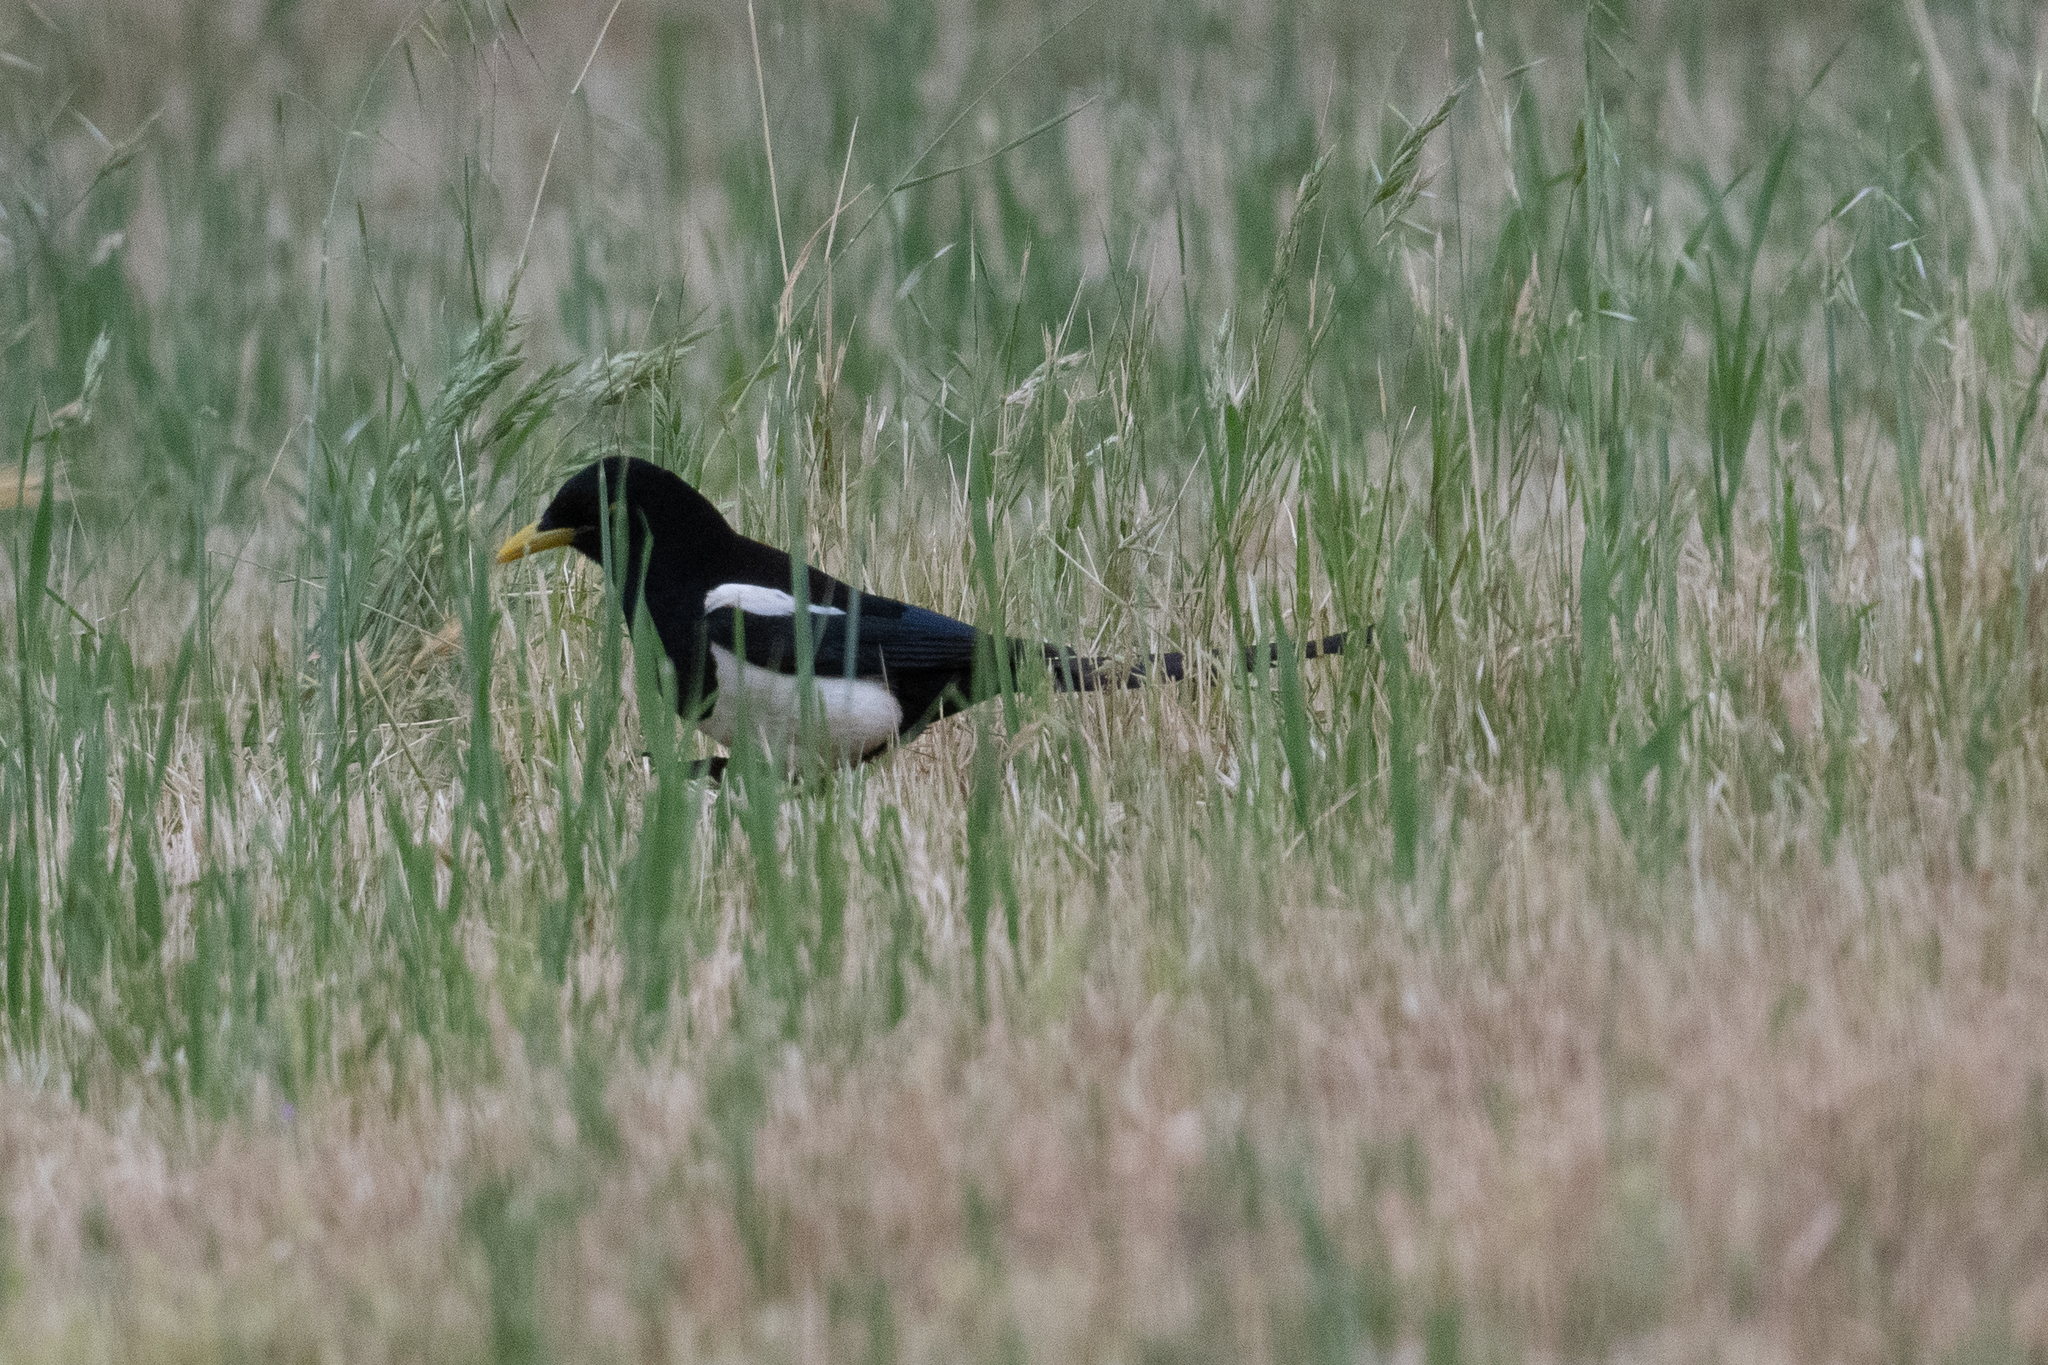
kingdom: Animalia
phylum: Chordata
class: Aves
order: Passeriformes
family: Corvidae
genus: Pica
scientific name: Pica nuttalli
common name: Yellow-billed magpie
